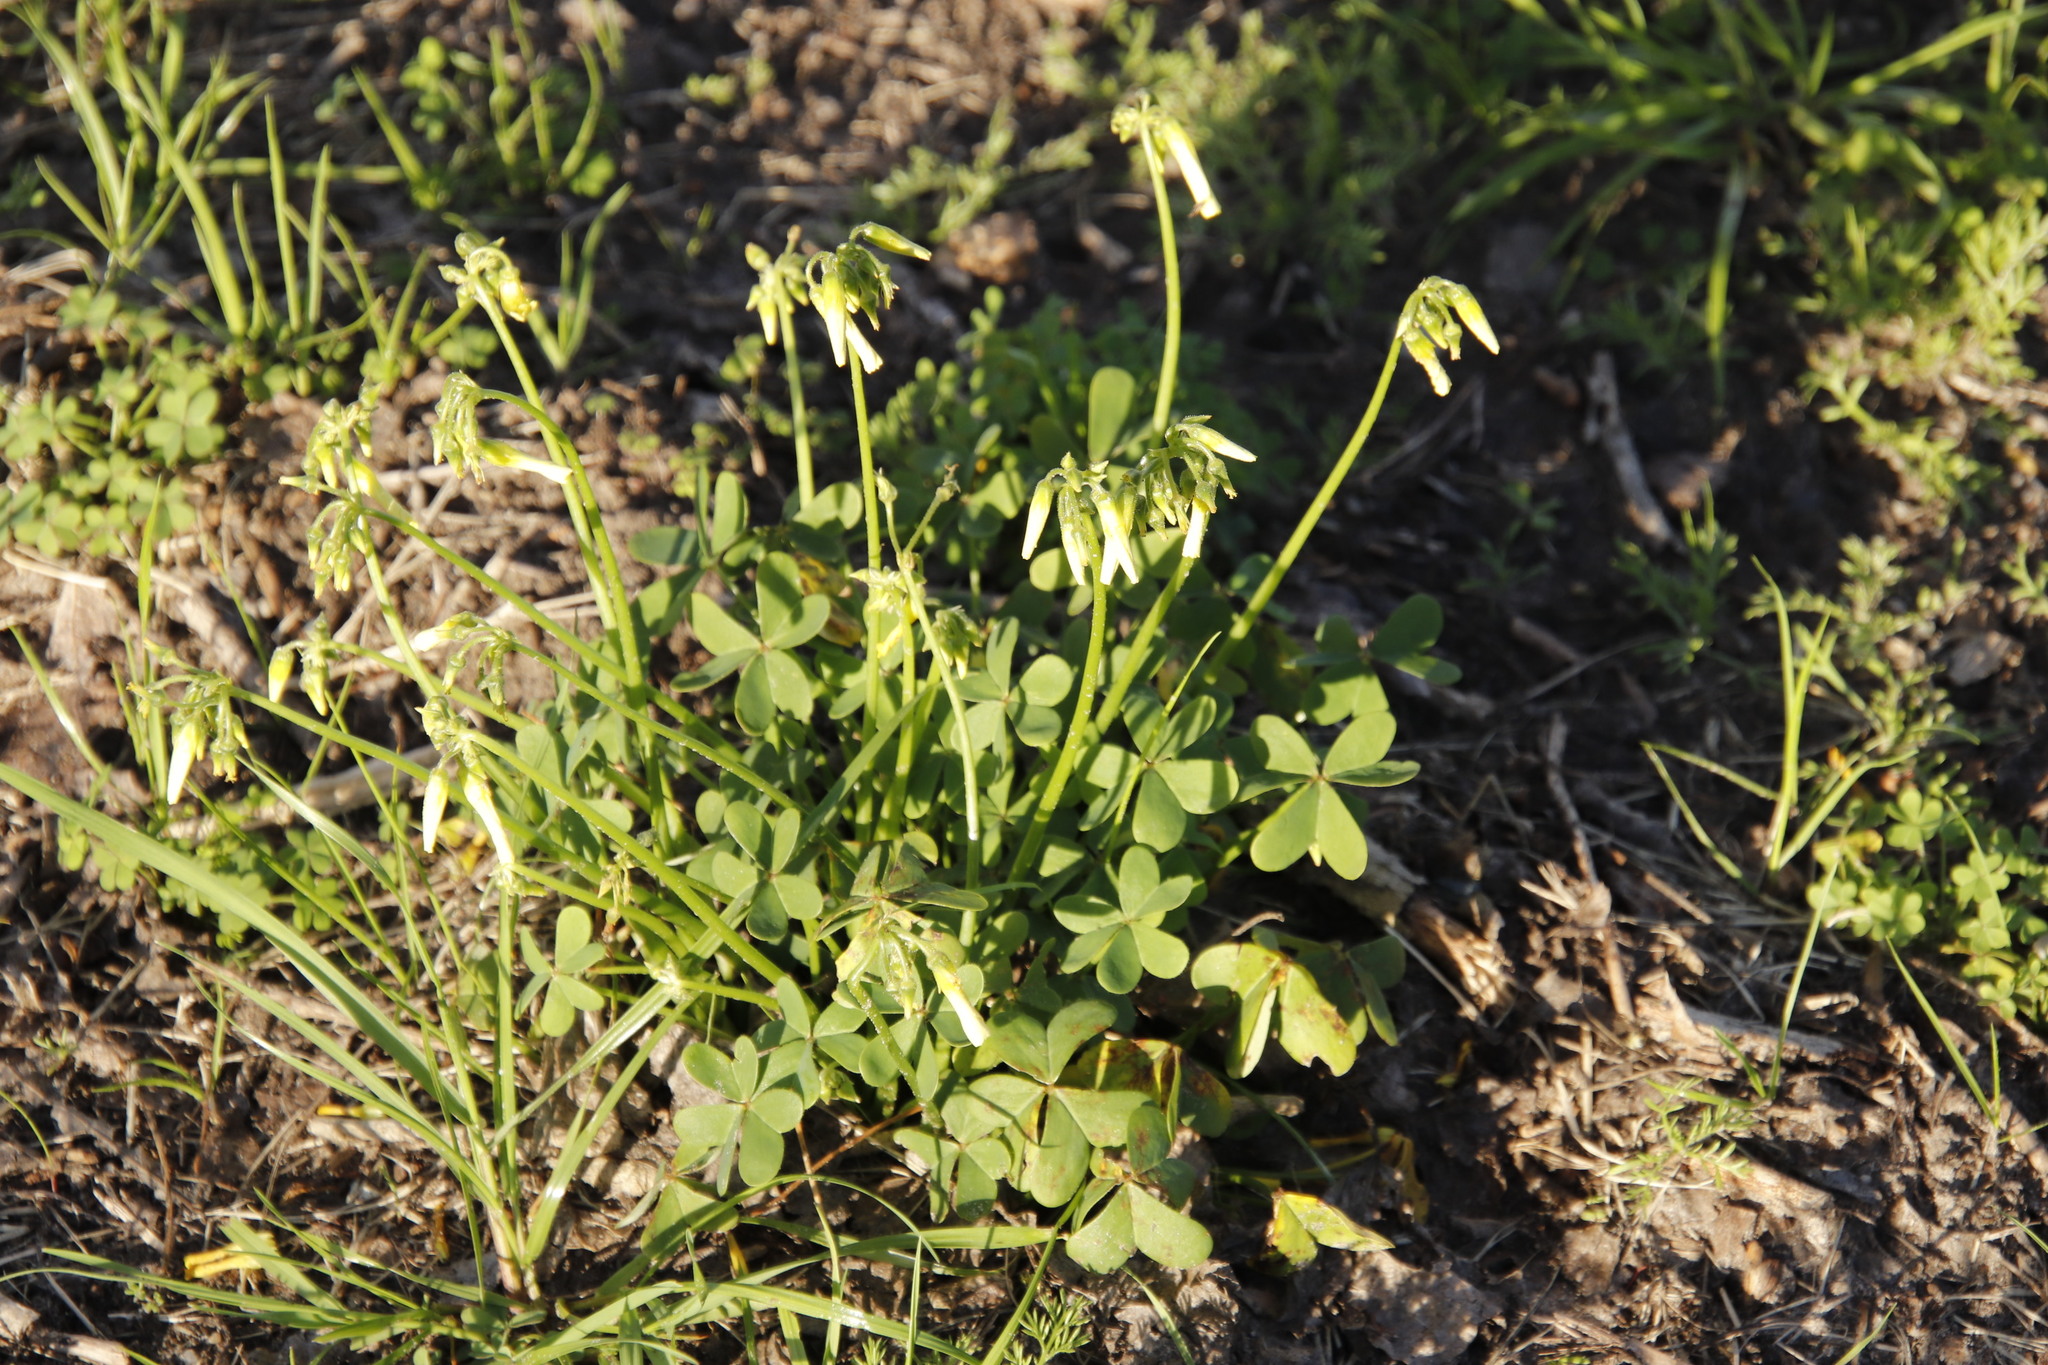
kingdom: Plantae
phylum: Tracheophyta
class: Magnoliopsida
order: Oxalidales
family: Oxalidaceae
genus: Oxalis
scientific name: Oxalis pes-caprae
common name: Bermuda-buttercup
